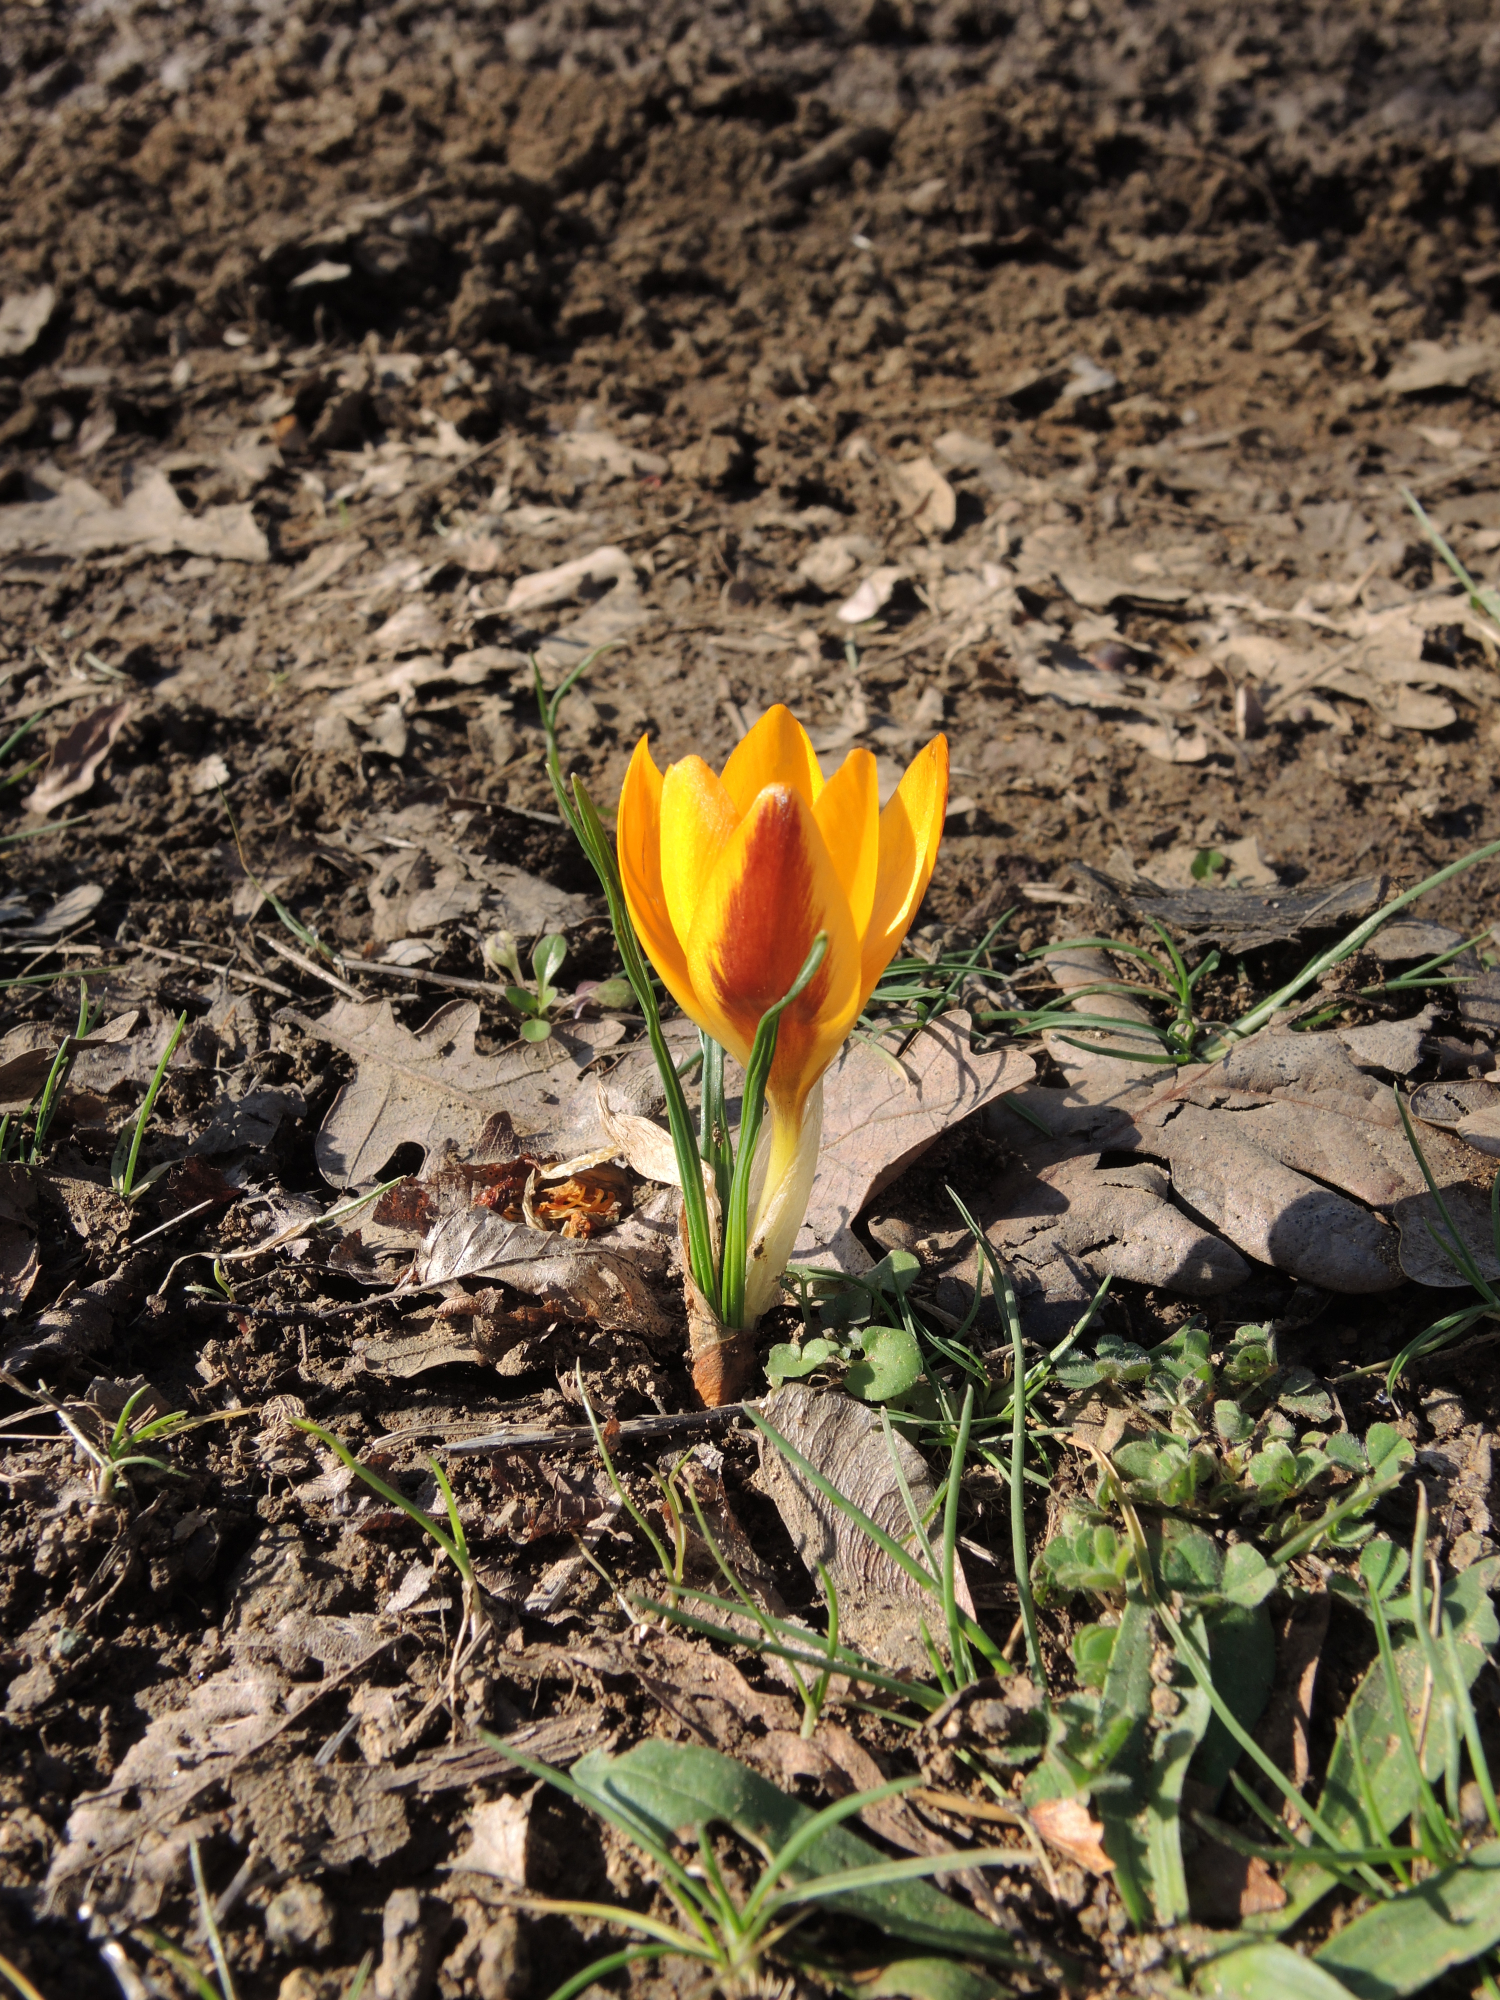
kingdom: Plantae
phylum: Tracheophyta
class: Liliopsida
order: Asparagales
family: Iridaceae
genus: Crocus
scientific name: Crocus flavus
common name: Yellow crocus
